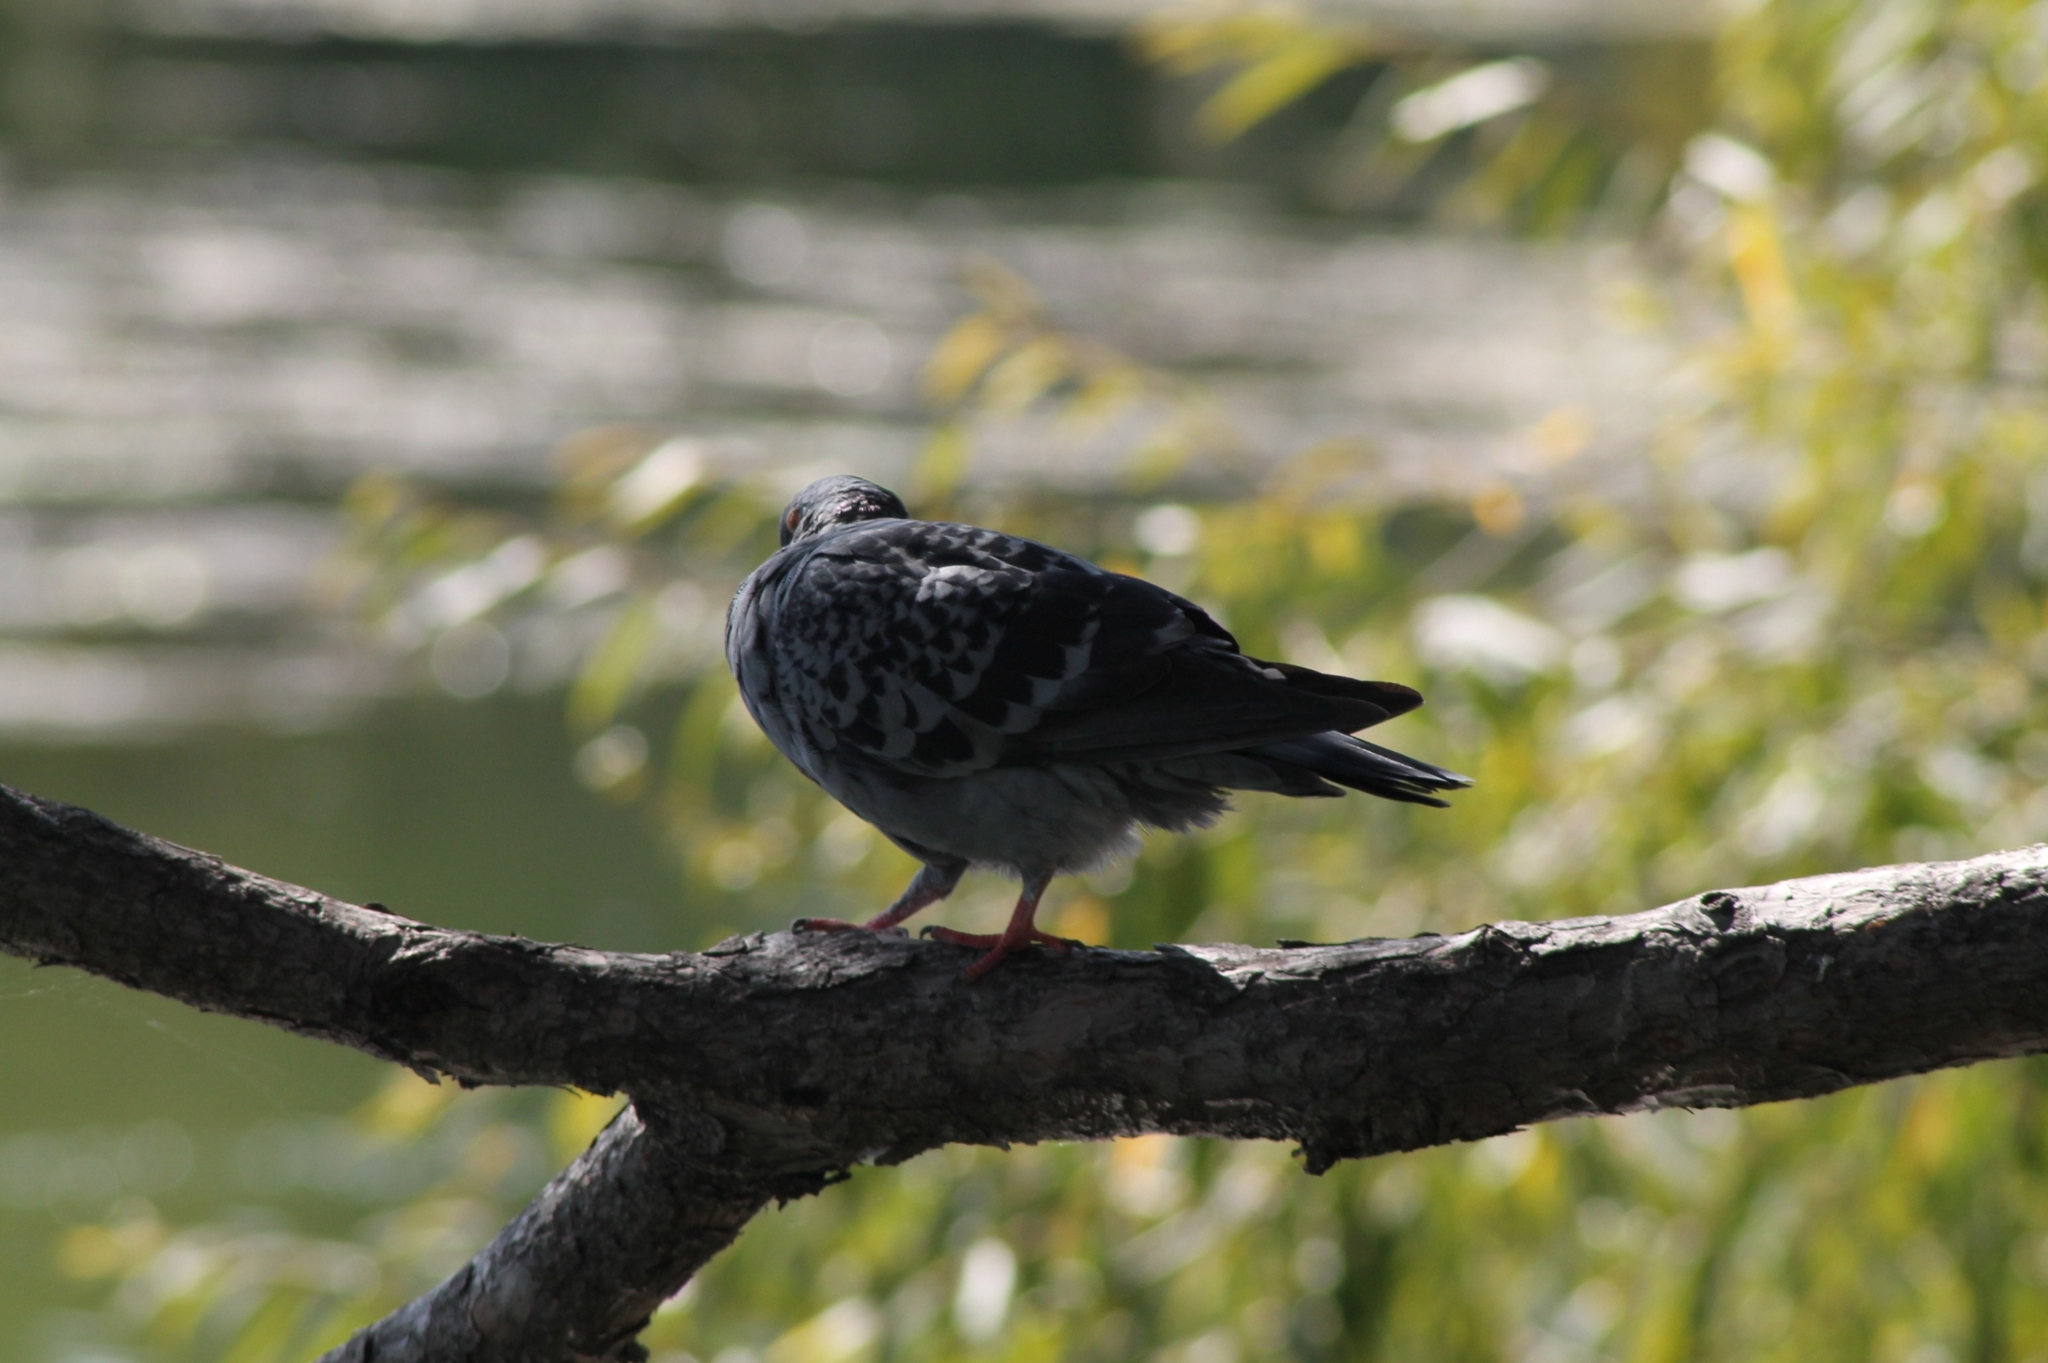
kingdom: Animalia
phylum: Chordata
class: Aves
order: Columbiformes
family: Columbidae
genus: Columba
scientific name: Columba livia
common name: Rock pigeon
